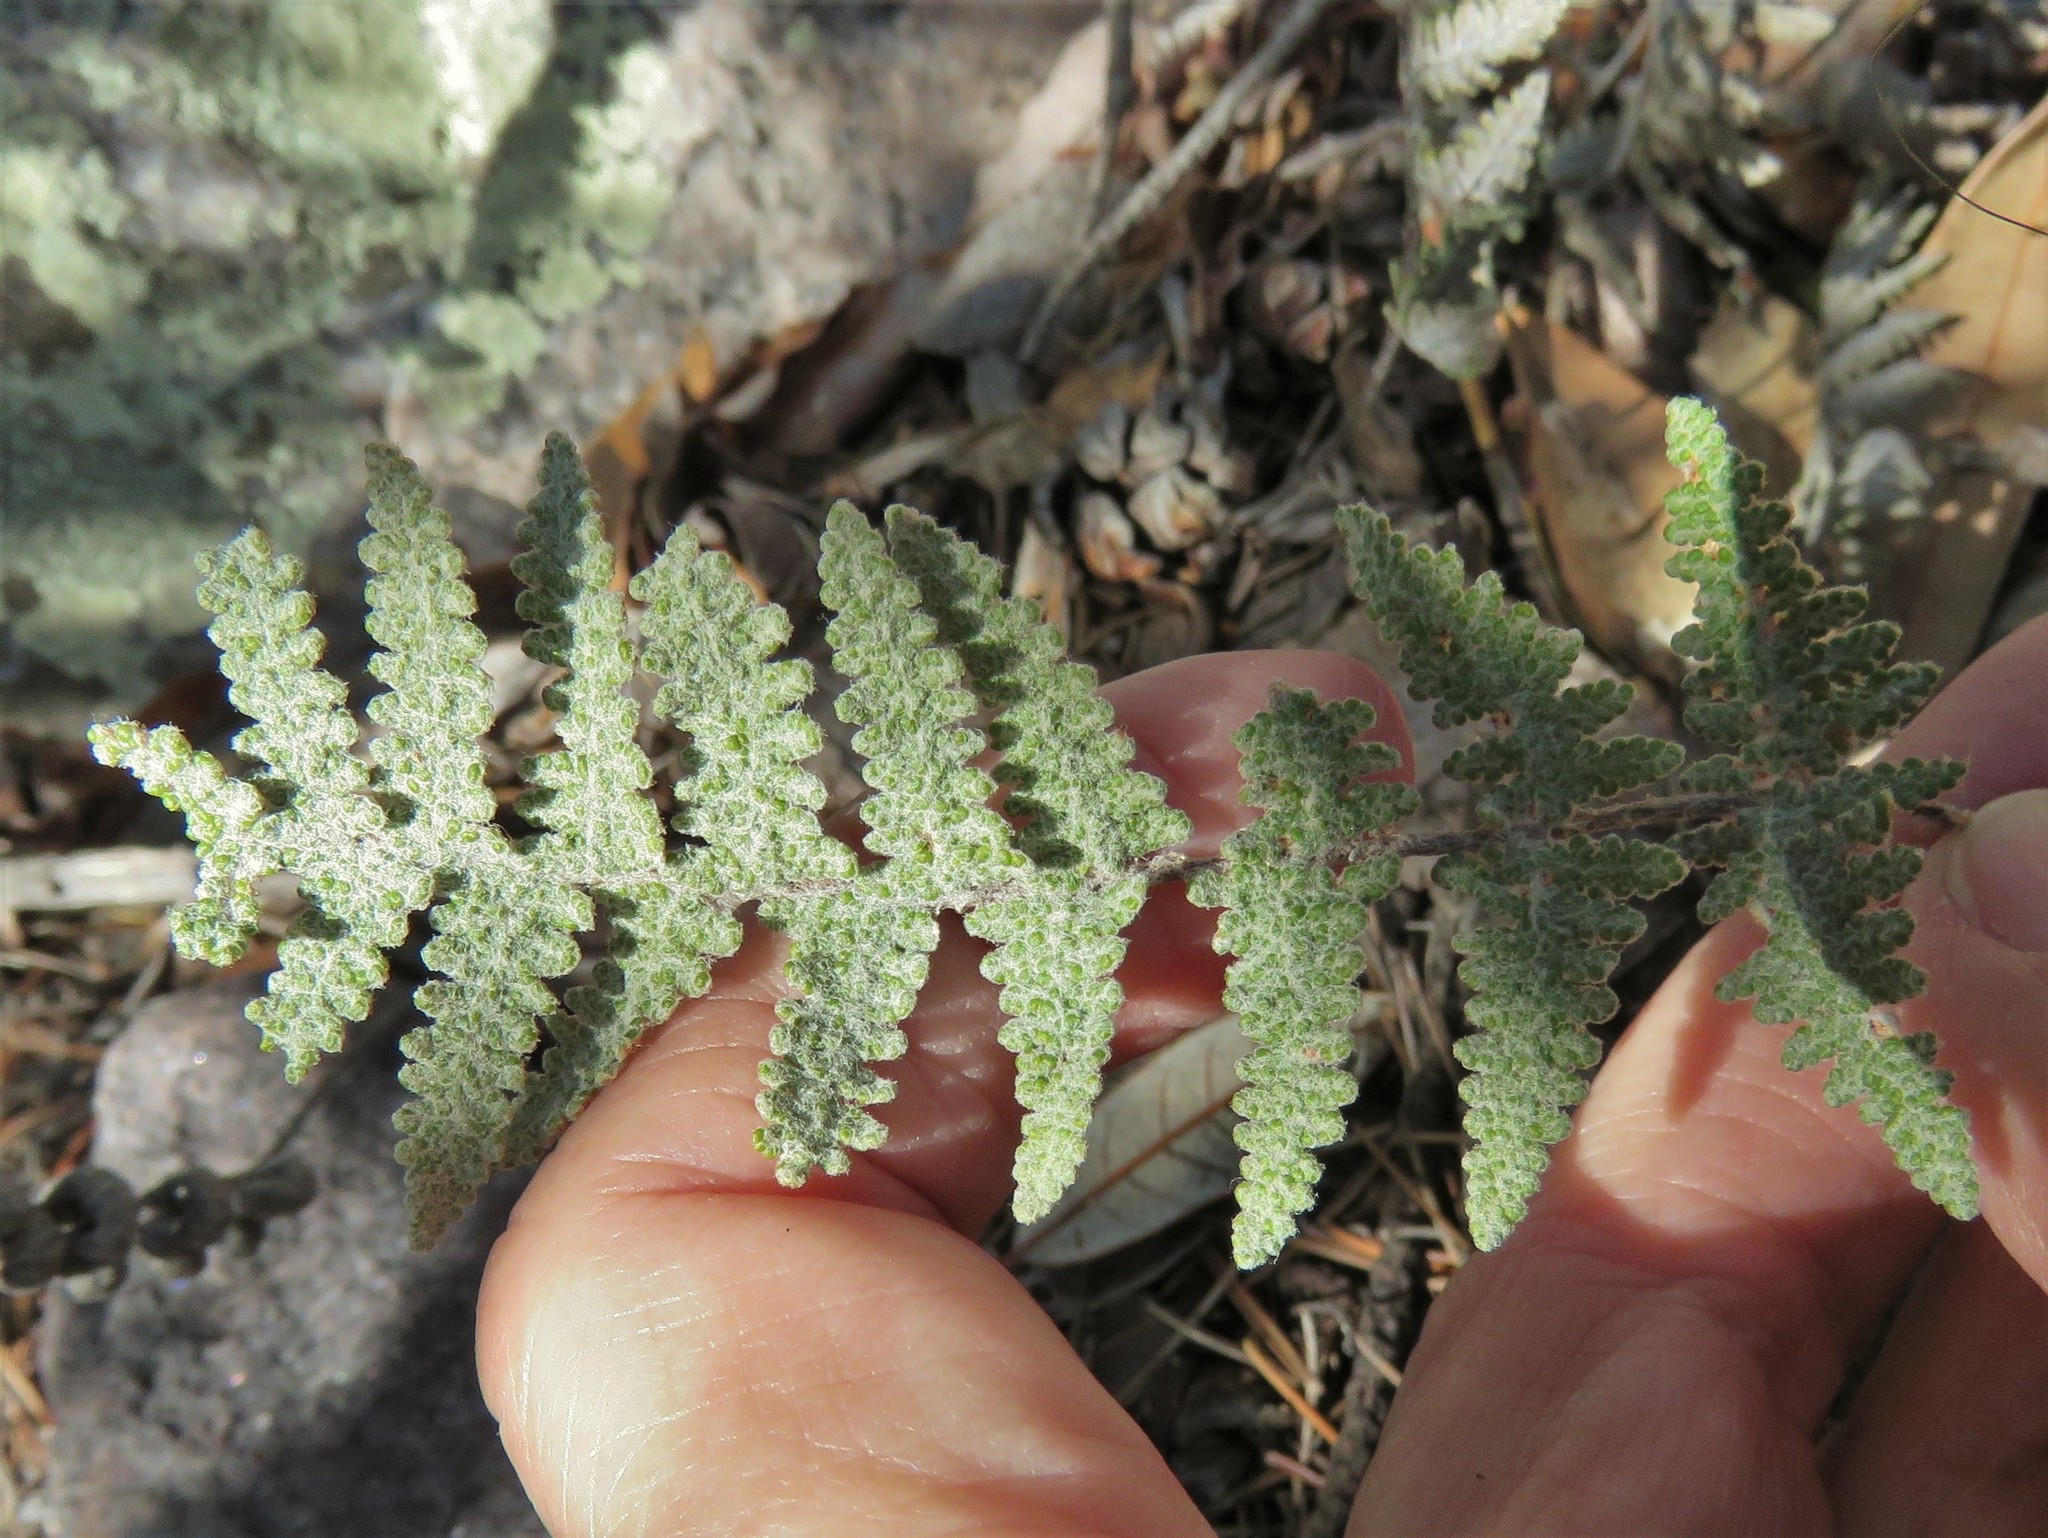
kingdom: Plantae
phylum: Tracheophyta
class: Polypodiopsida
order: Polypodiales
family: Pteridaceae
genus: Myriopteris
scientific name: Myriopteris lindheimeri
